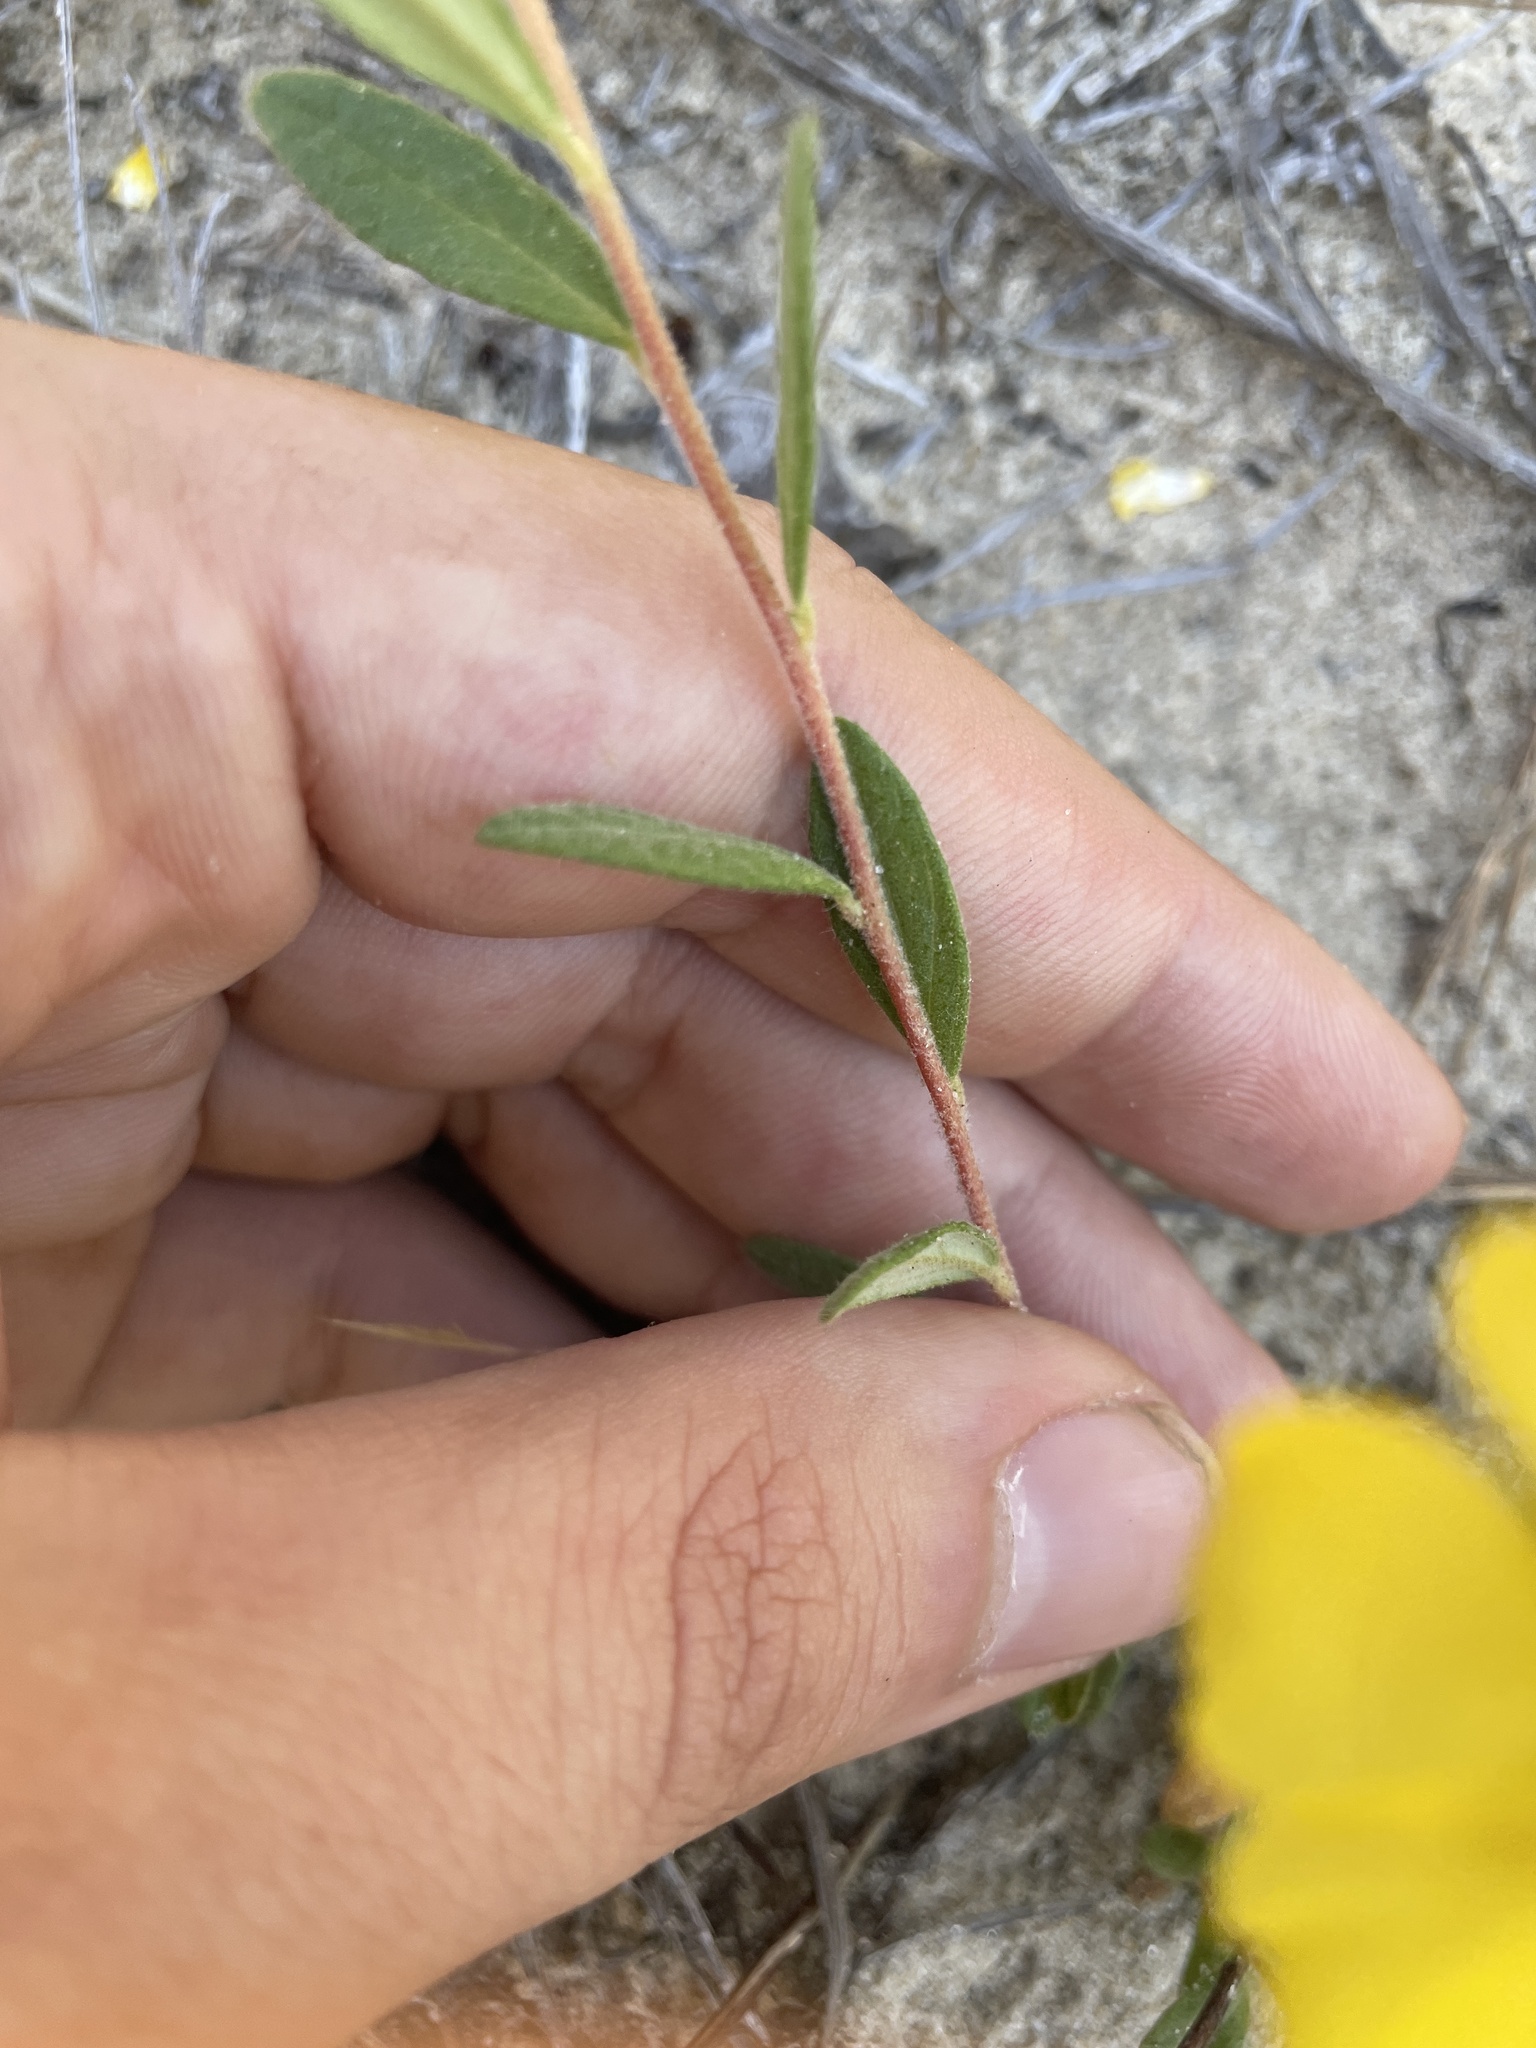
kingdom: Plantae
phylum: Tracheophyta
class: Magnoliopsida
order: Malvales
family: Cistaceae
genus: Crocanthemum
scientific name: Crocanthemum canadense
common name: Canada frostweed
